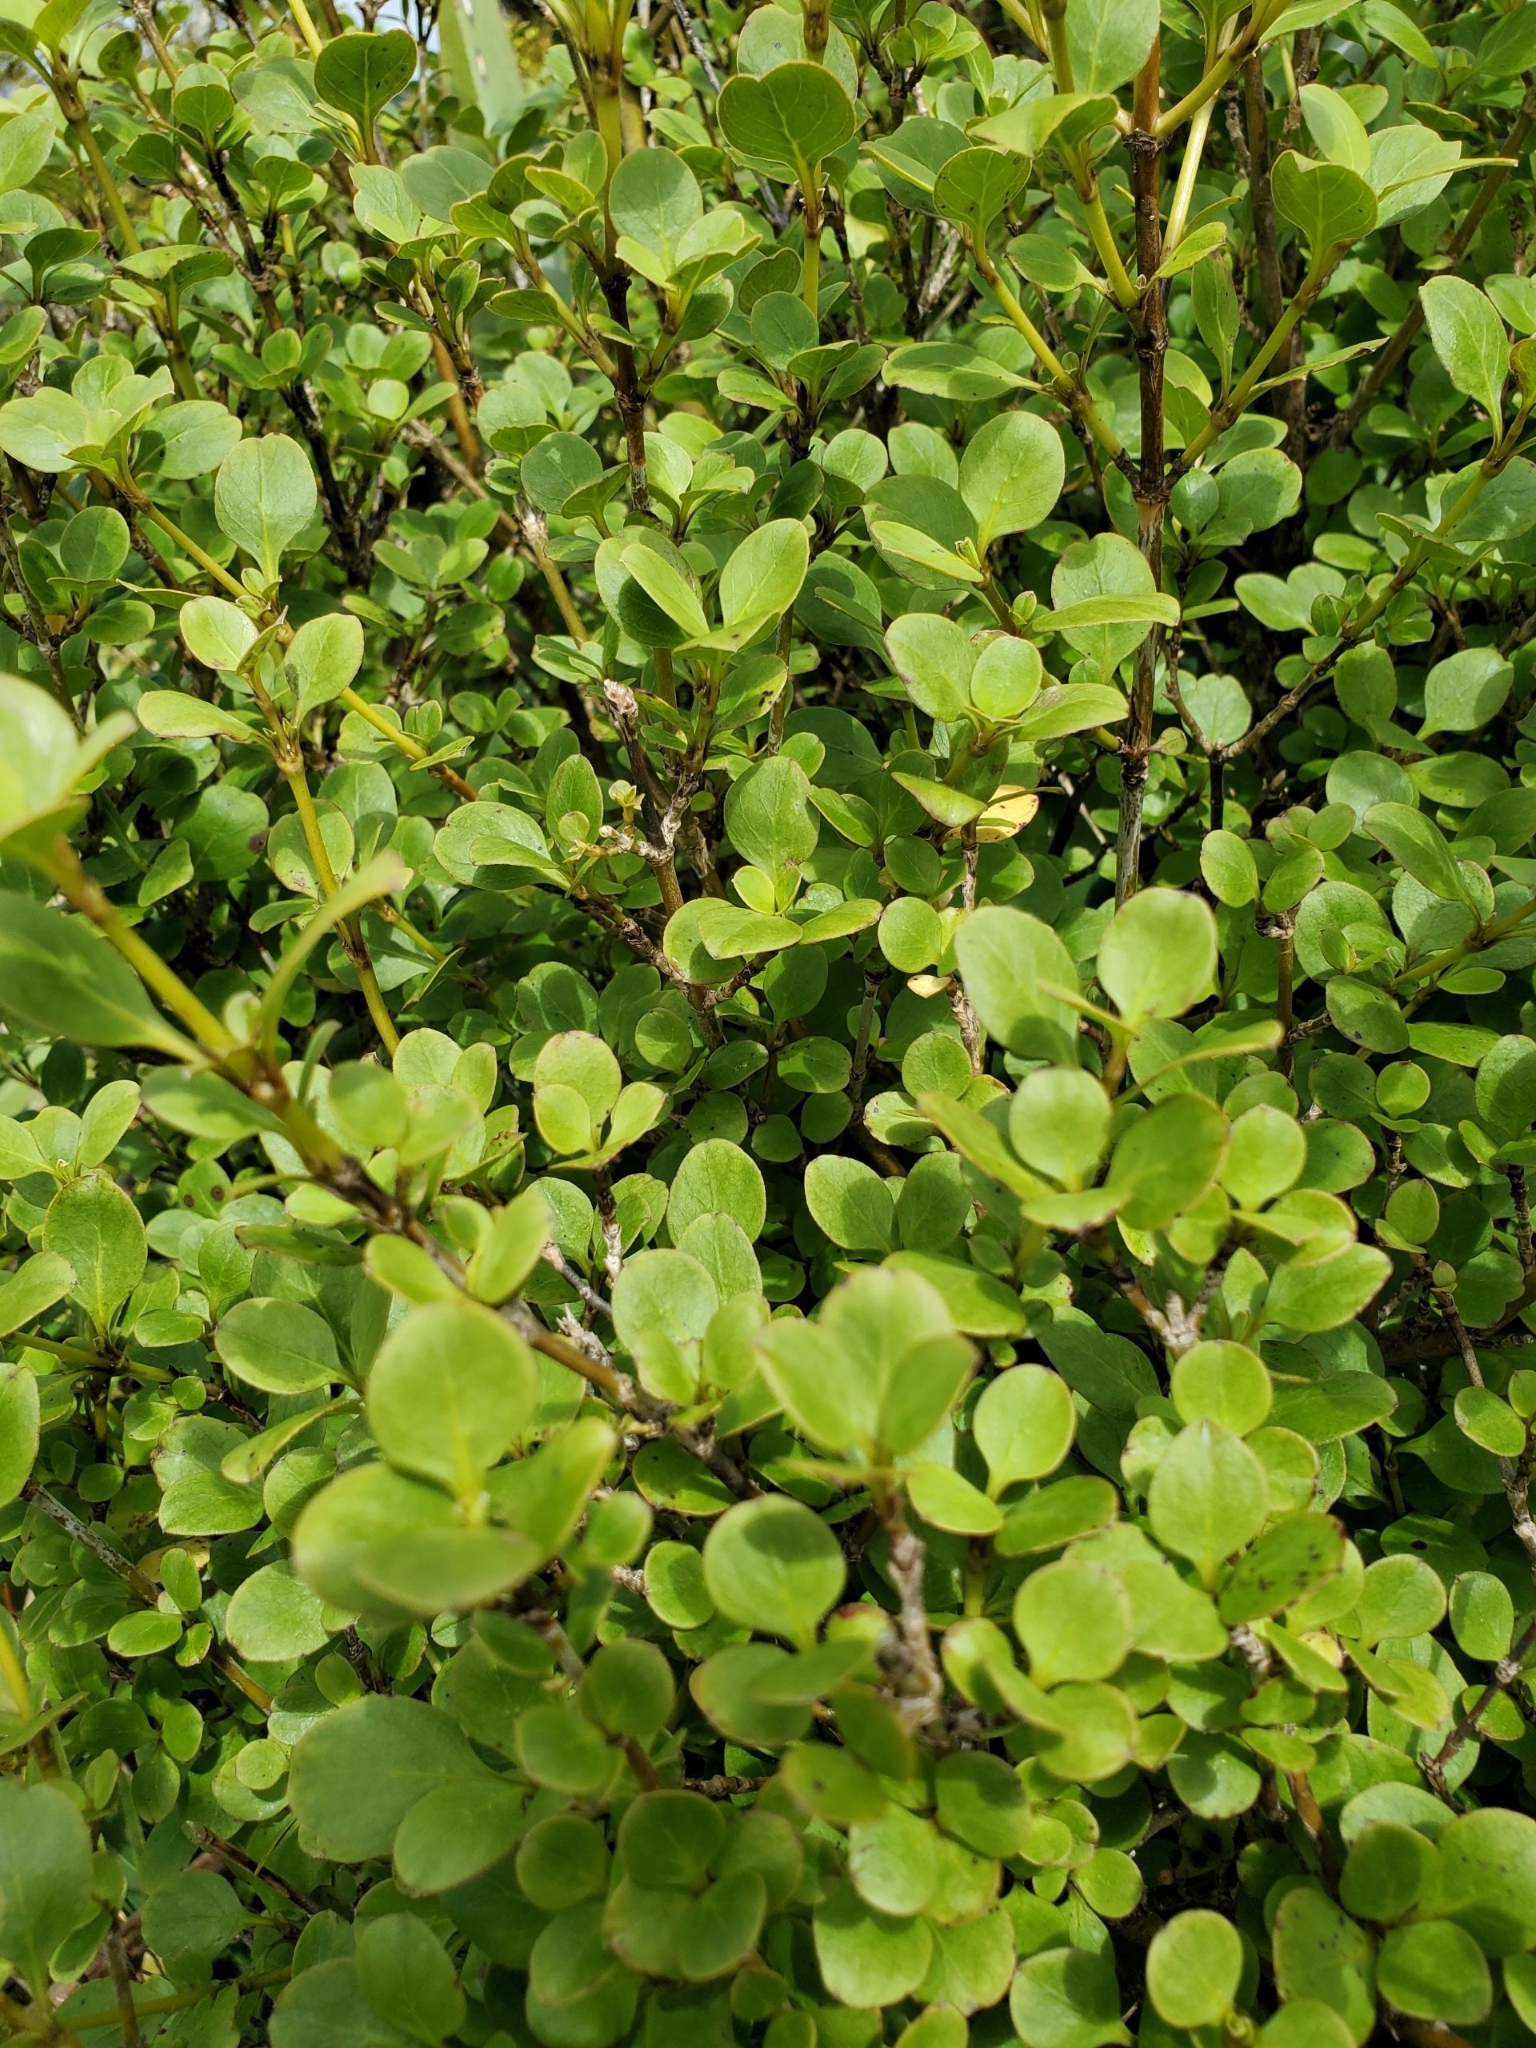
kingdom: Plantae
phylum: Tracheophyta
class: Magnoliopsida
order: Gentianales
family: Rubiaceae
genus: Coprosma
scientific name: Coprosma foetidissima
